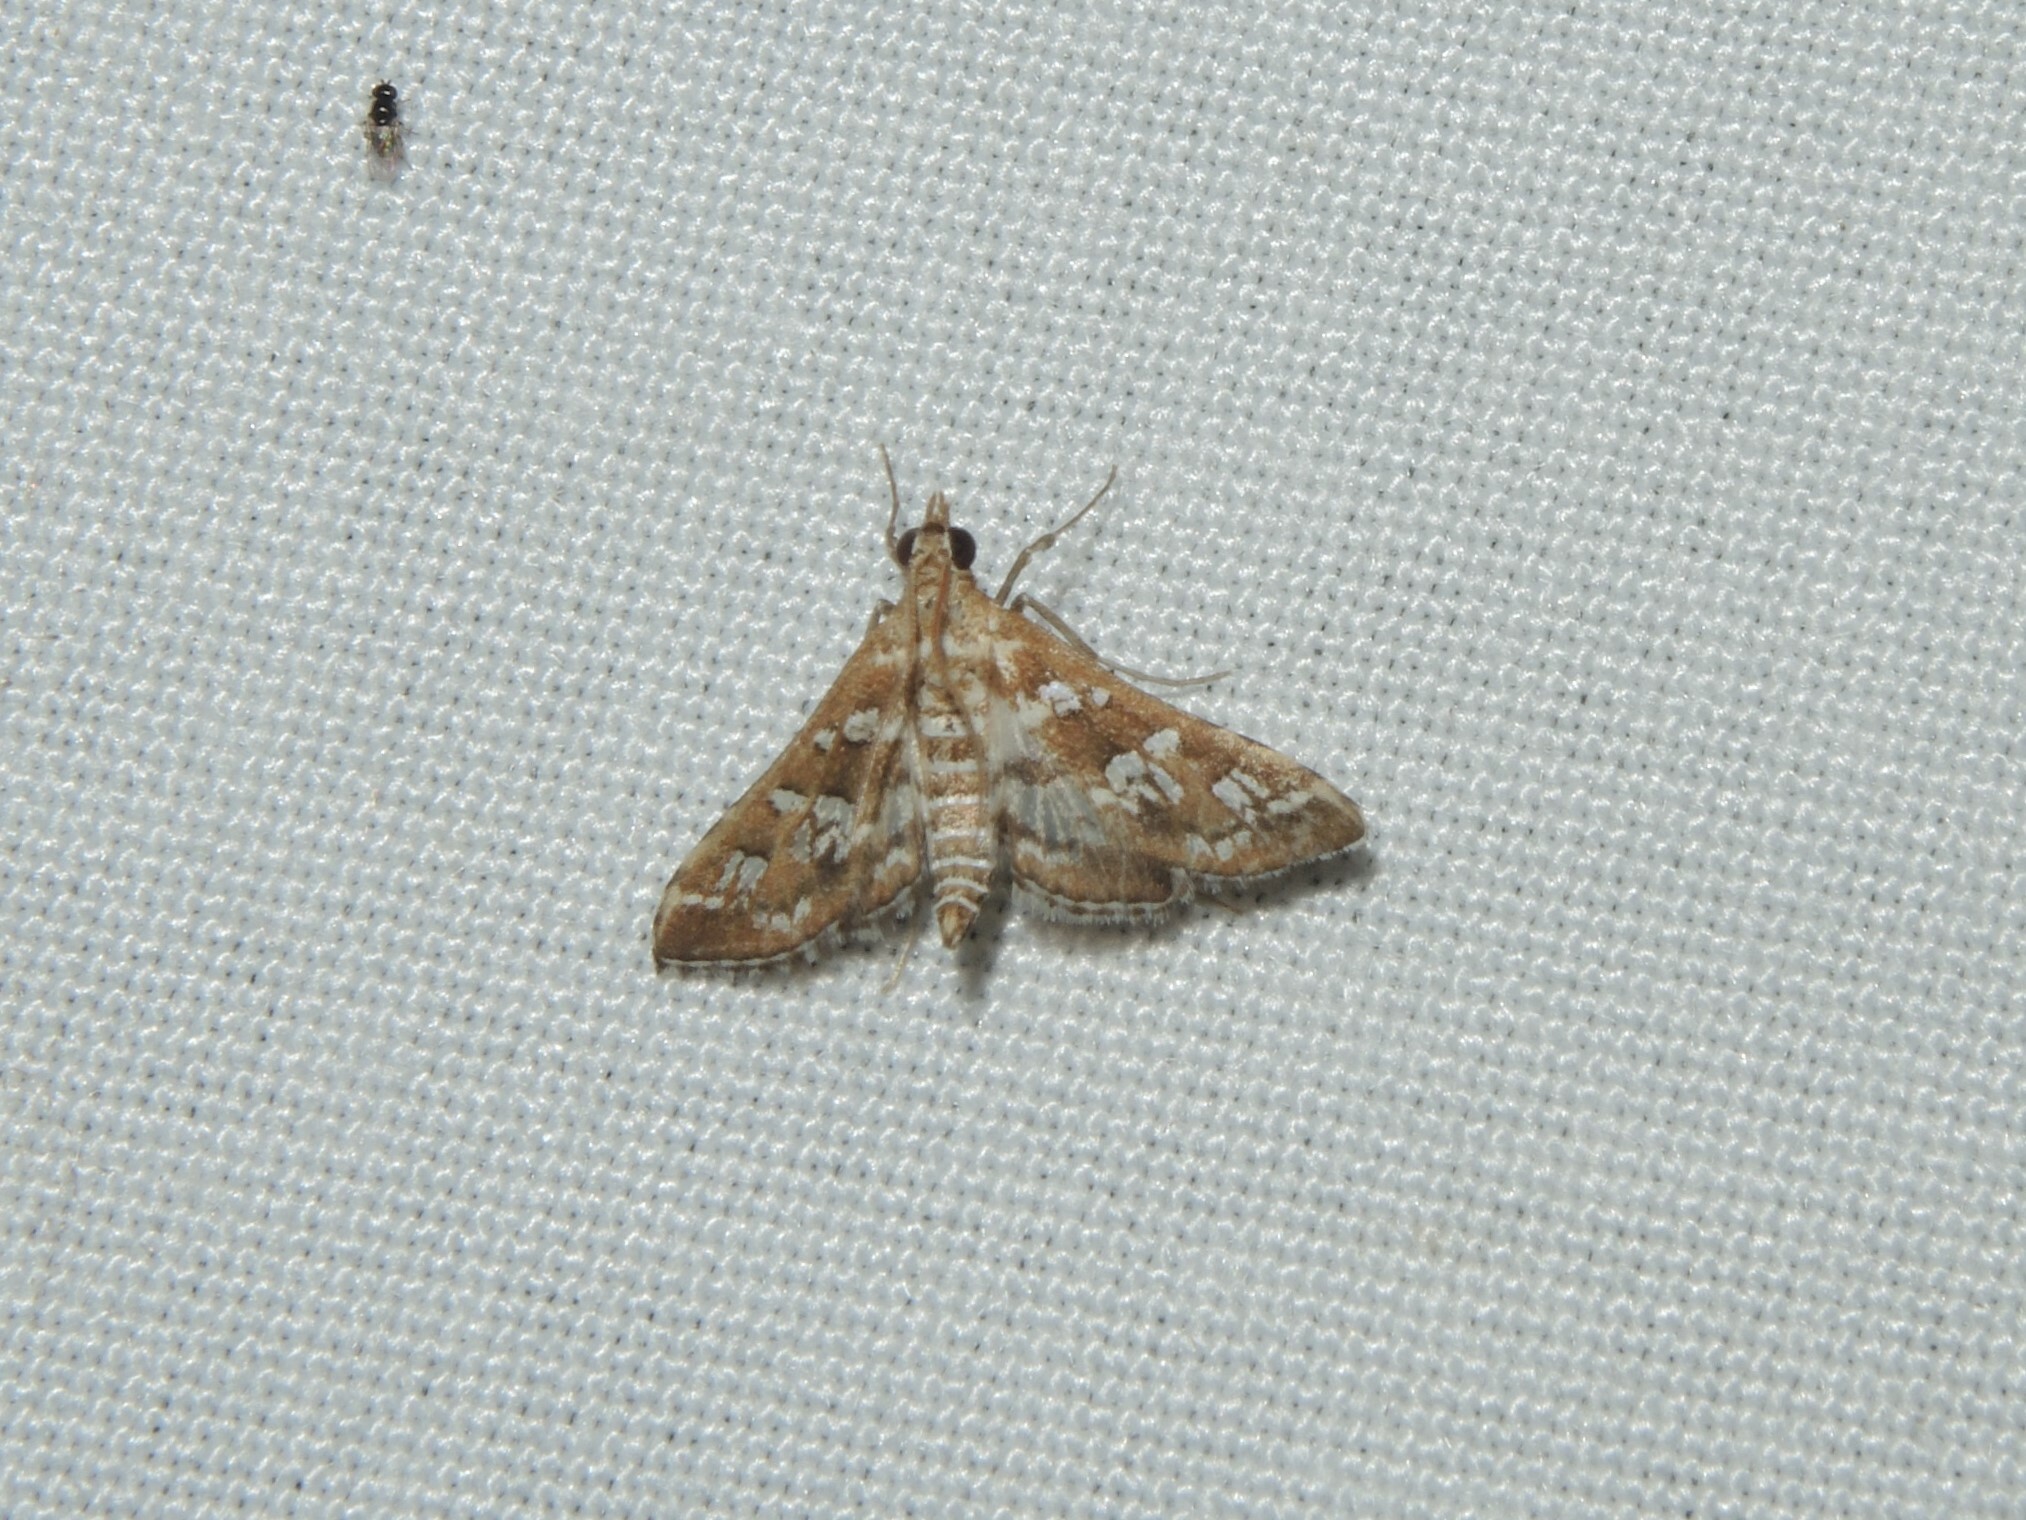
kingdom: Animalia
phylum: Arthropoda
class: Insecta
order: Lepidoptera
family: Crambidae
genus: Sameodes
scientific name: Sameodes cancellalis
